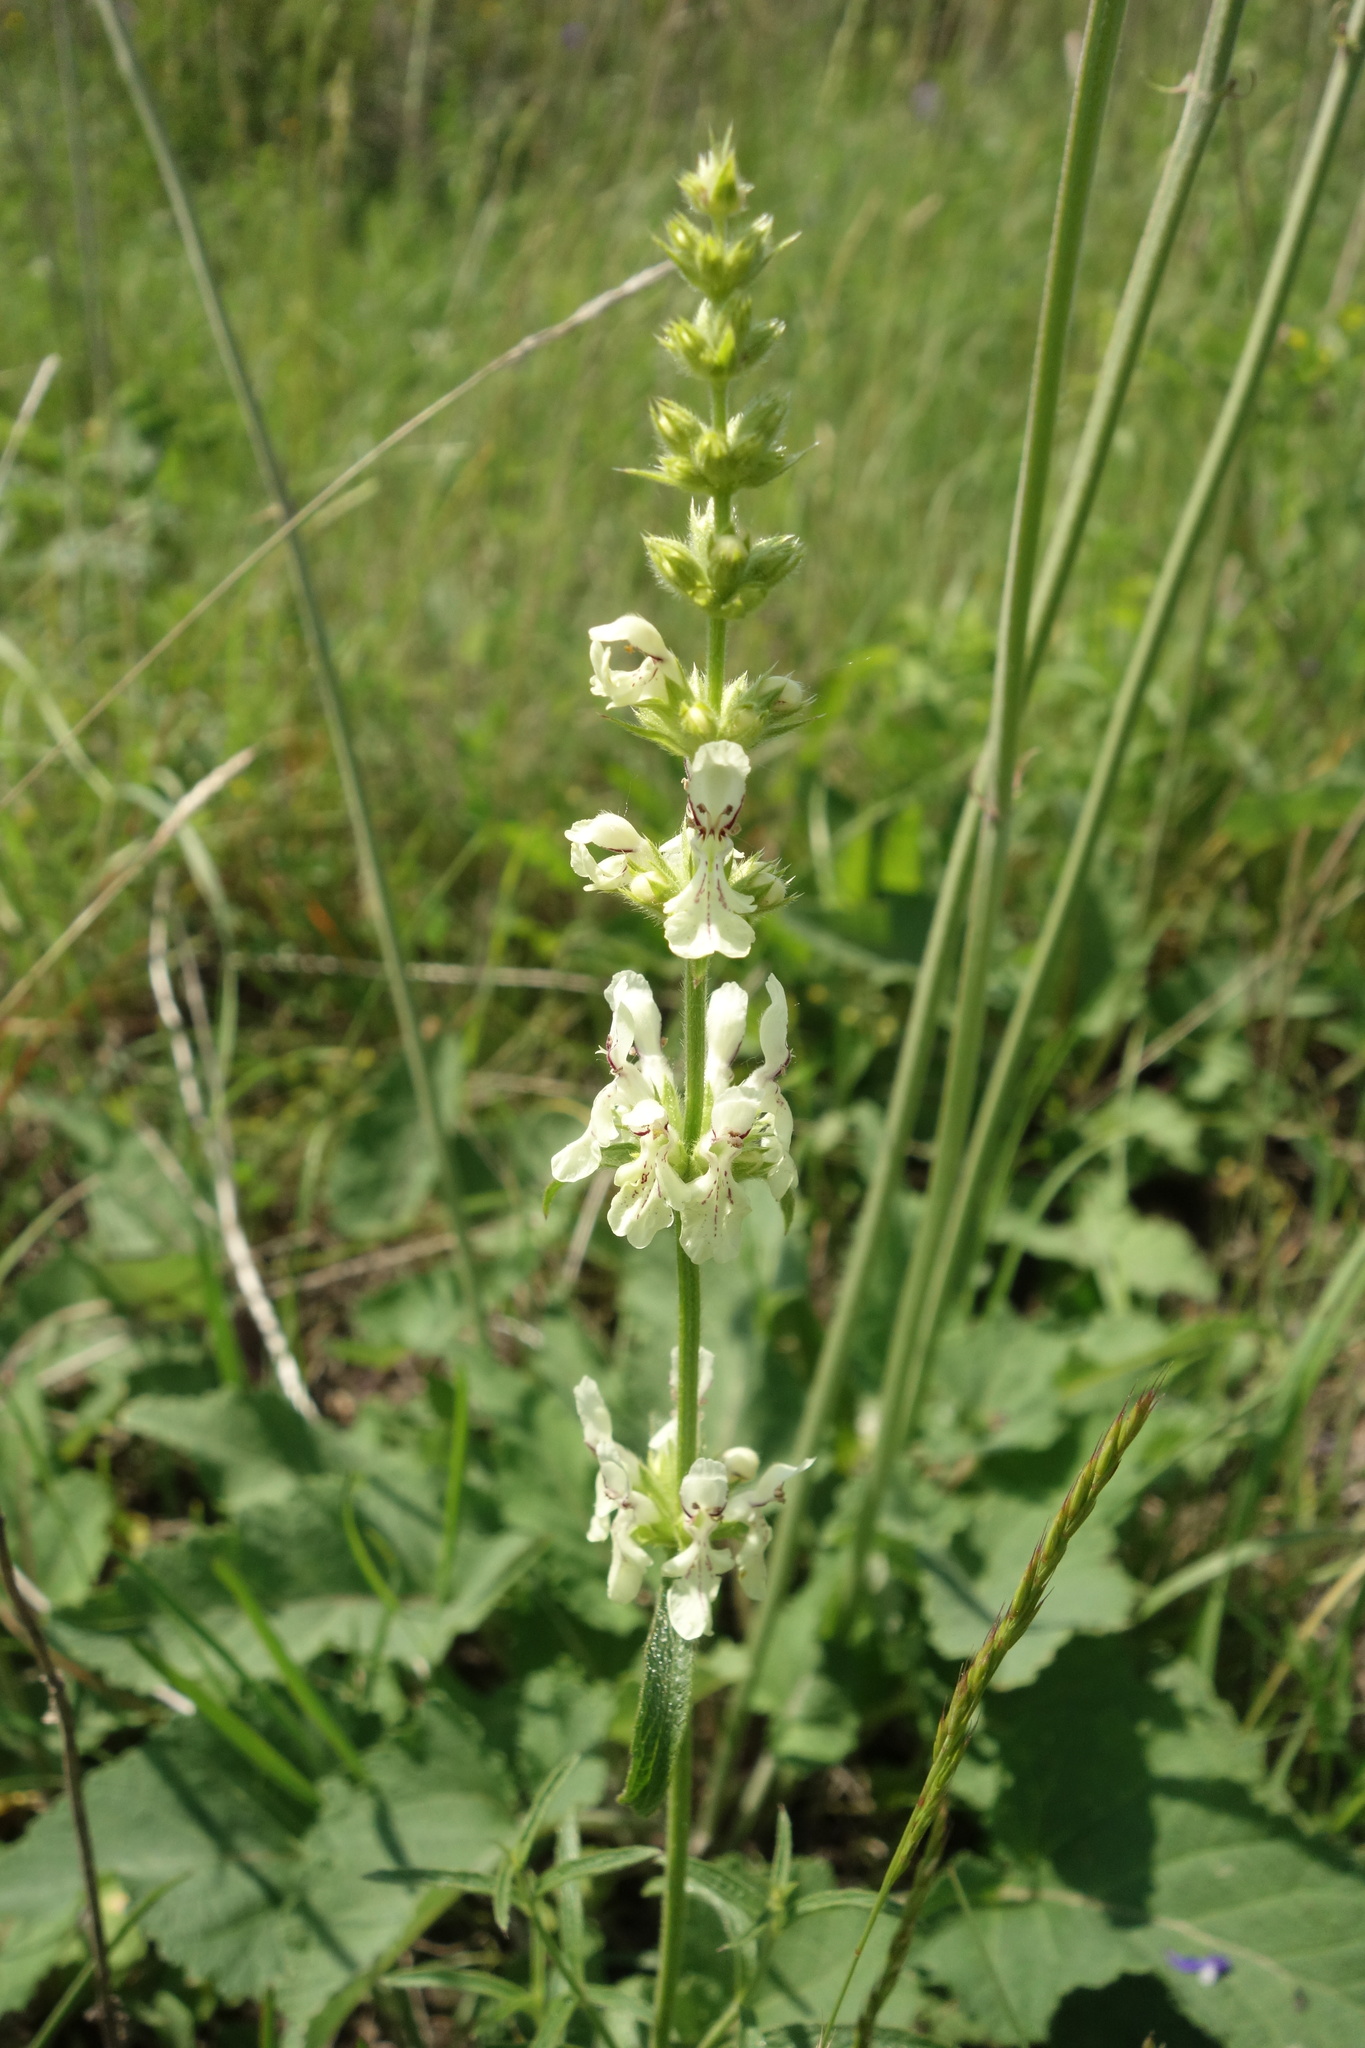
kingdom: Plantae
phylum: Tracheophyta
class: Magnoliopsida
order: Lamiales
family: Lamiaceae
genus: Stachys
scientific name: Stachys recta
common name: Perennial yellow-woundwort
